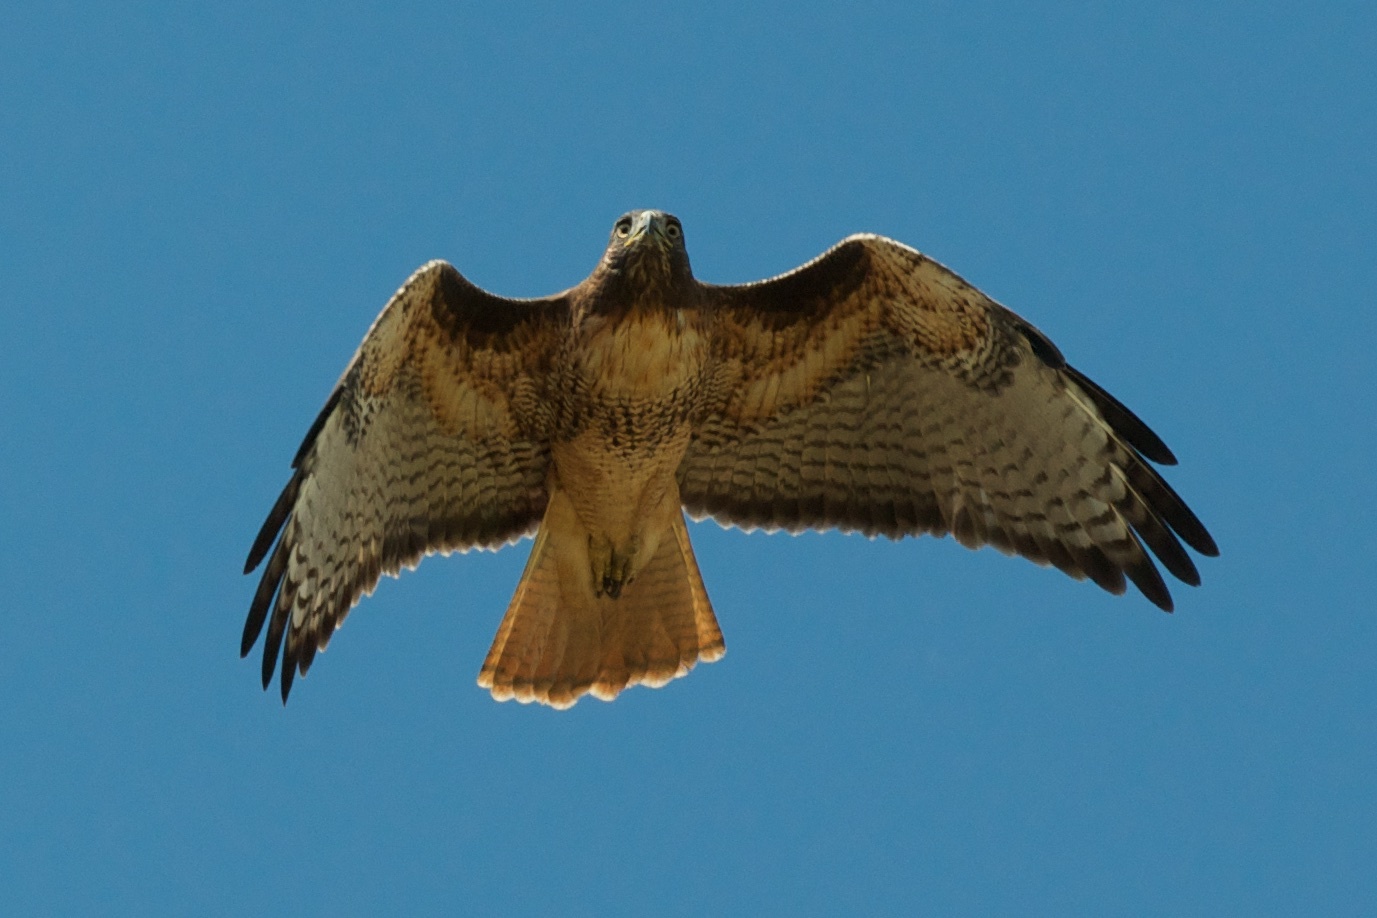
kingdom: Animalia
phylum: Chordata
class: Aves
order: Accipitriformes
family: Accipitridae
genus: Buteo
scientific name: Buteo jamaicensis
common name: Red-tailed hawk
